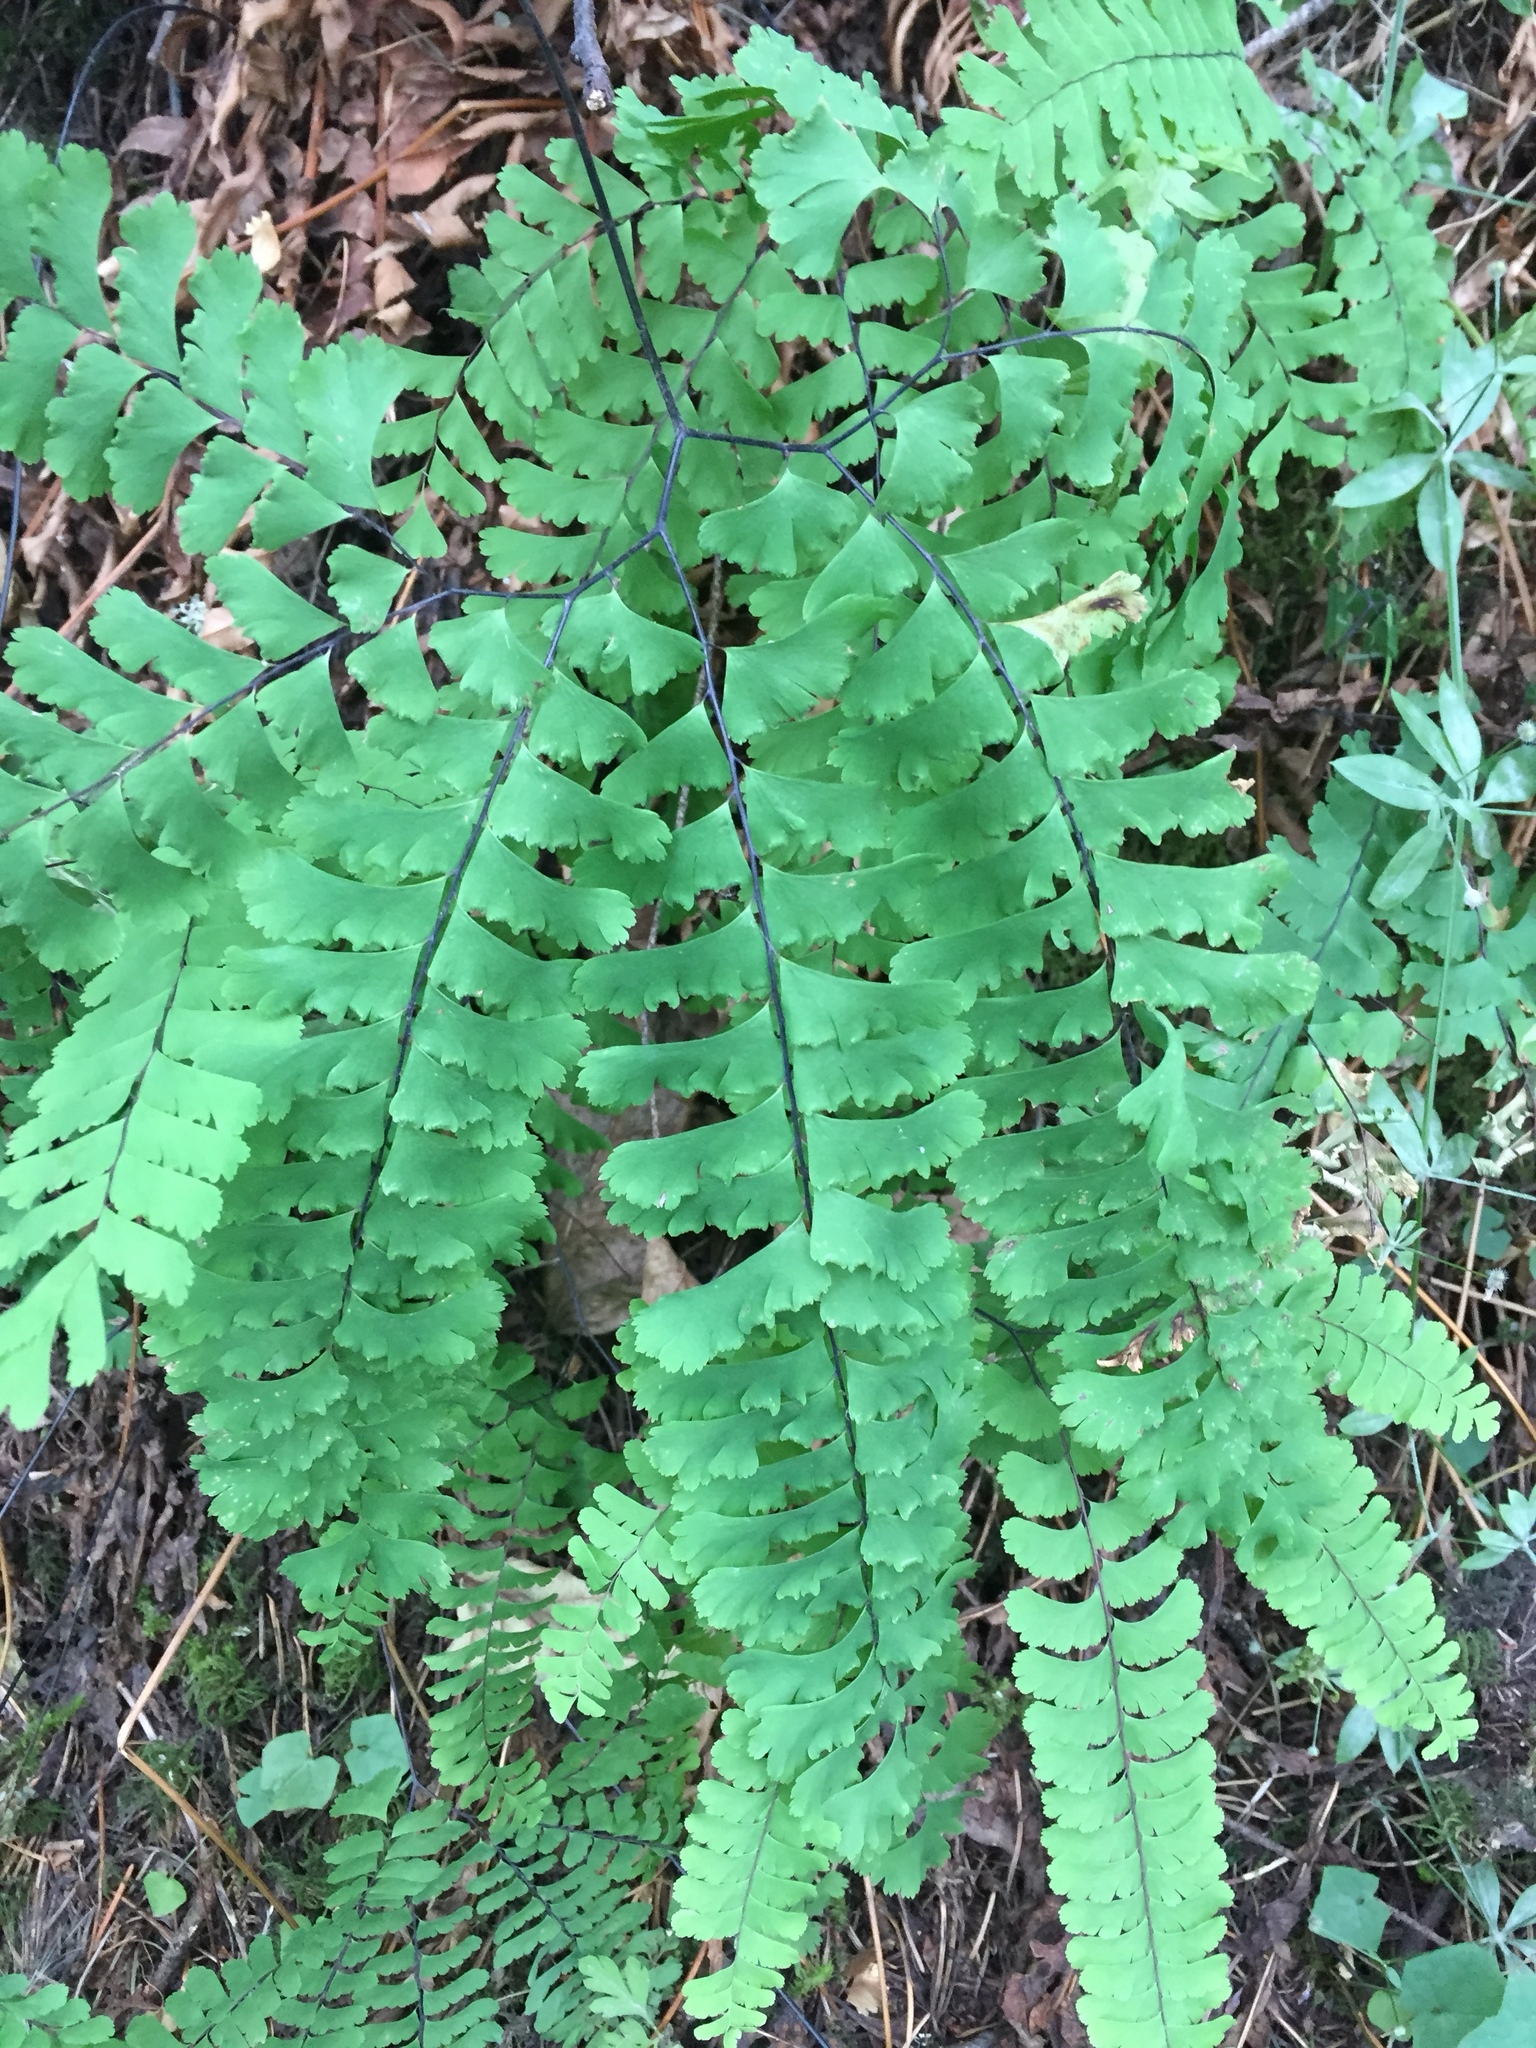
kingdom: Plantae
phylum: Tracheophyta
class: Polypodiopsida
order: Polypodiales
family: Pteridaceae
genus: Adiantum
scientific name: Adiantum aleuticum
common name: Aleutian maidenhair fern
